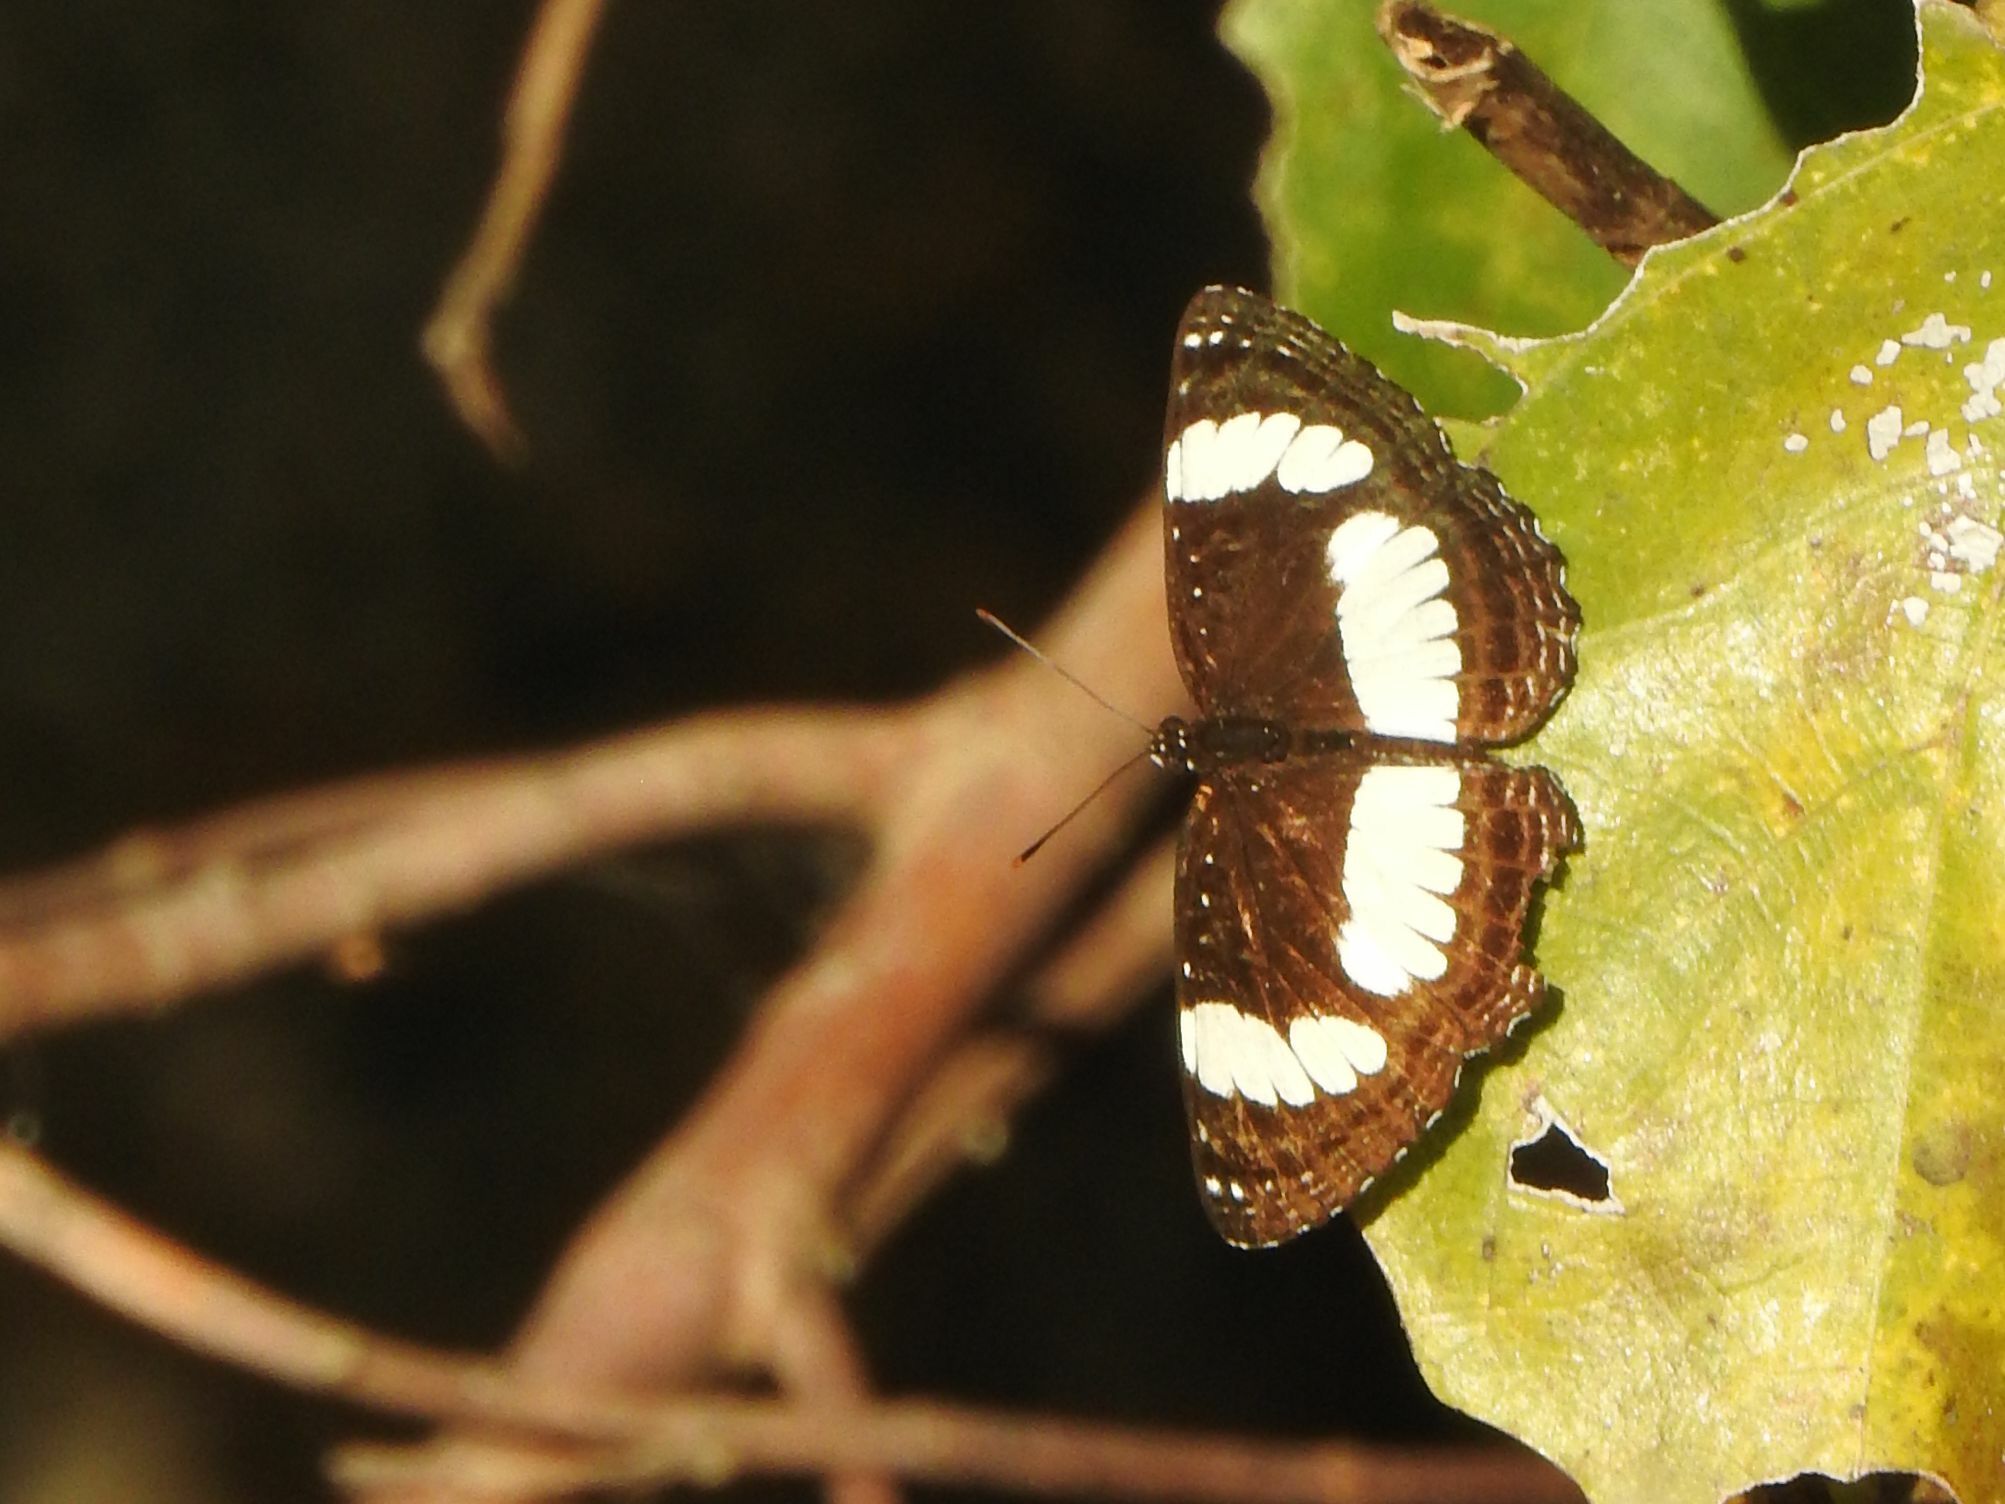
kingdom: Animalia
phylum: Arthropoda
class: Insecta
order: Lepidoptera
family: Nymphalidae
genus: Neptis
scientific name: Neptis laeta
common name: Common barred sailor
